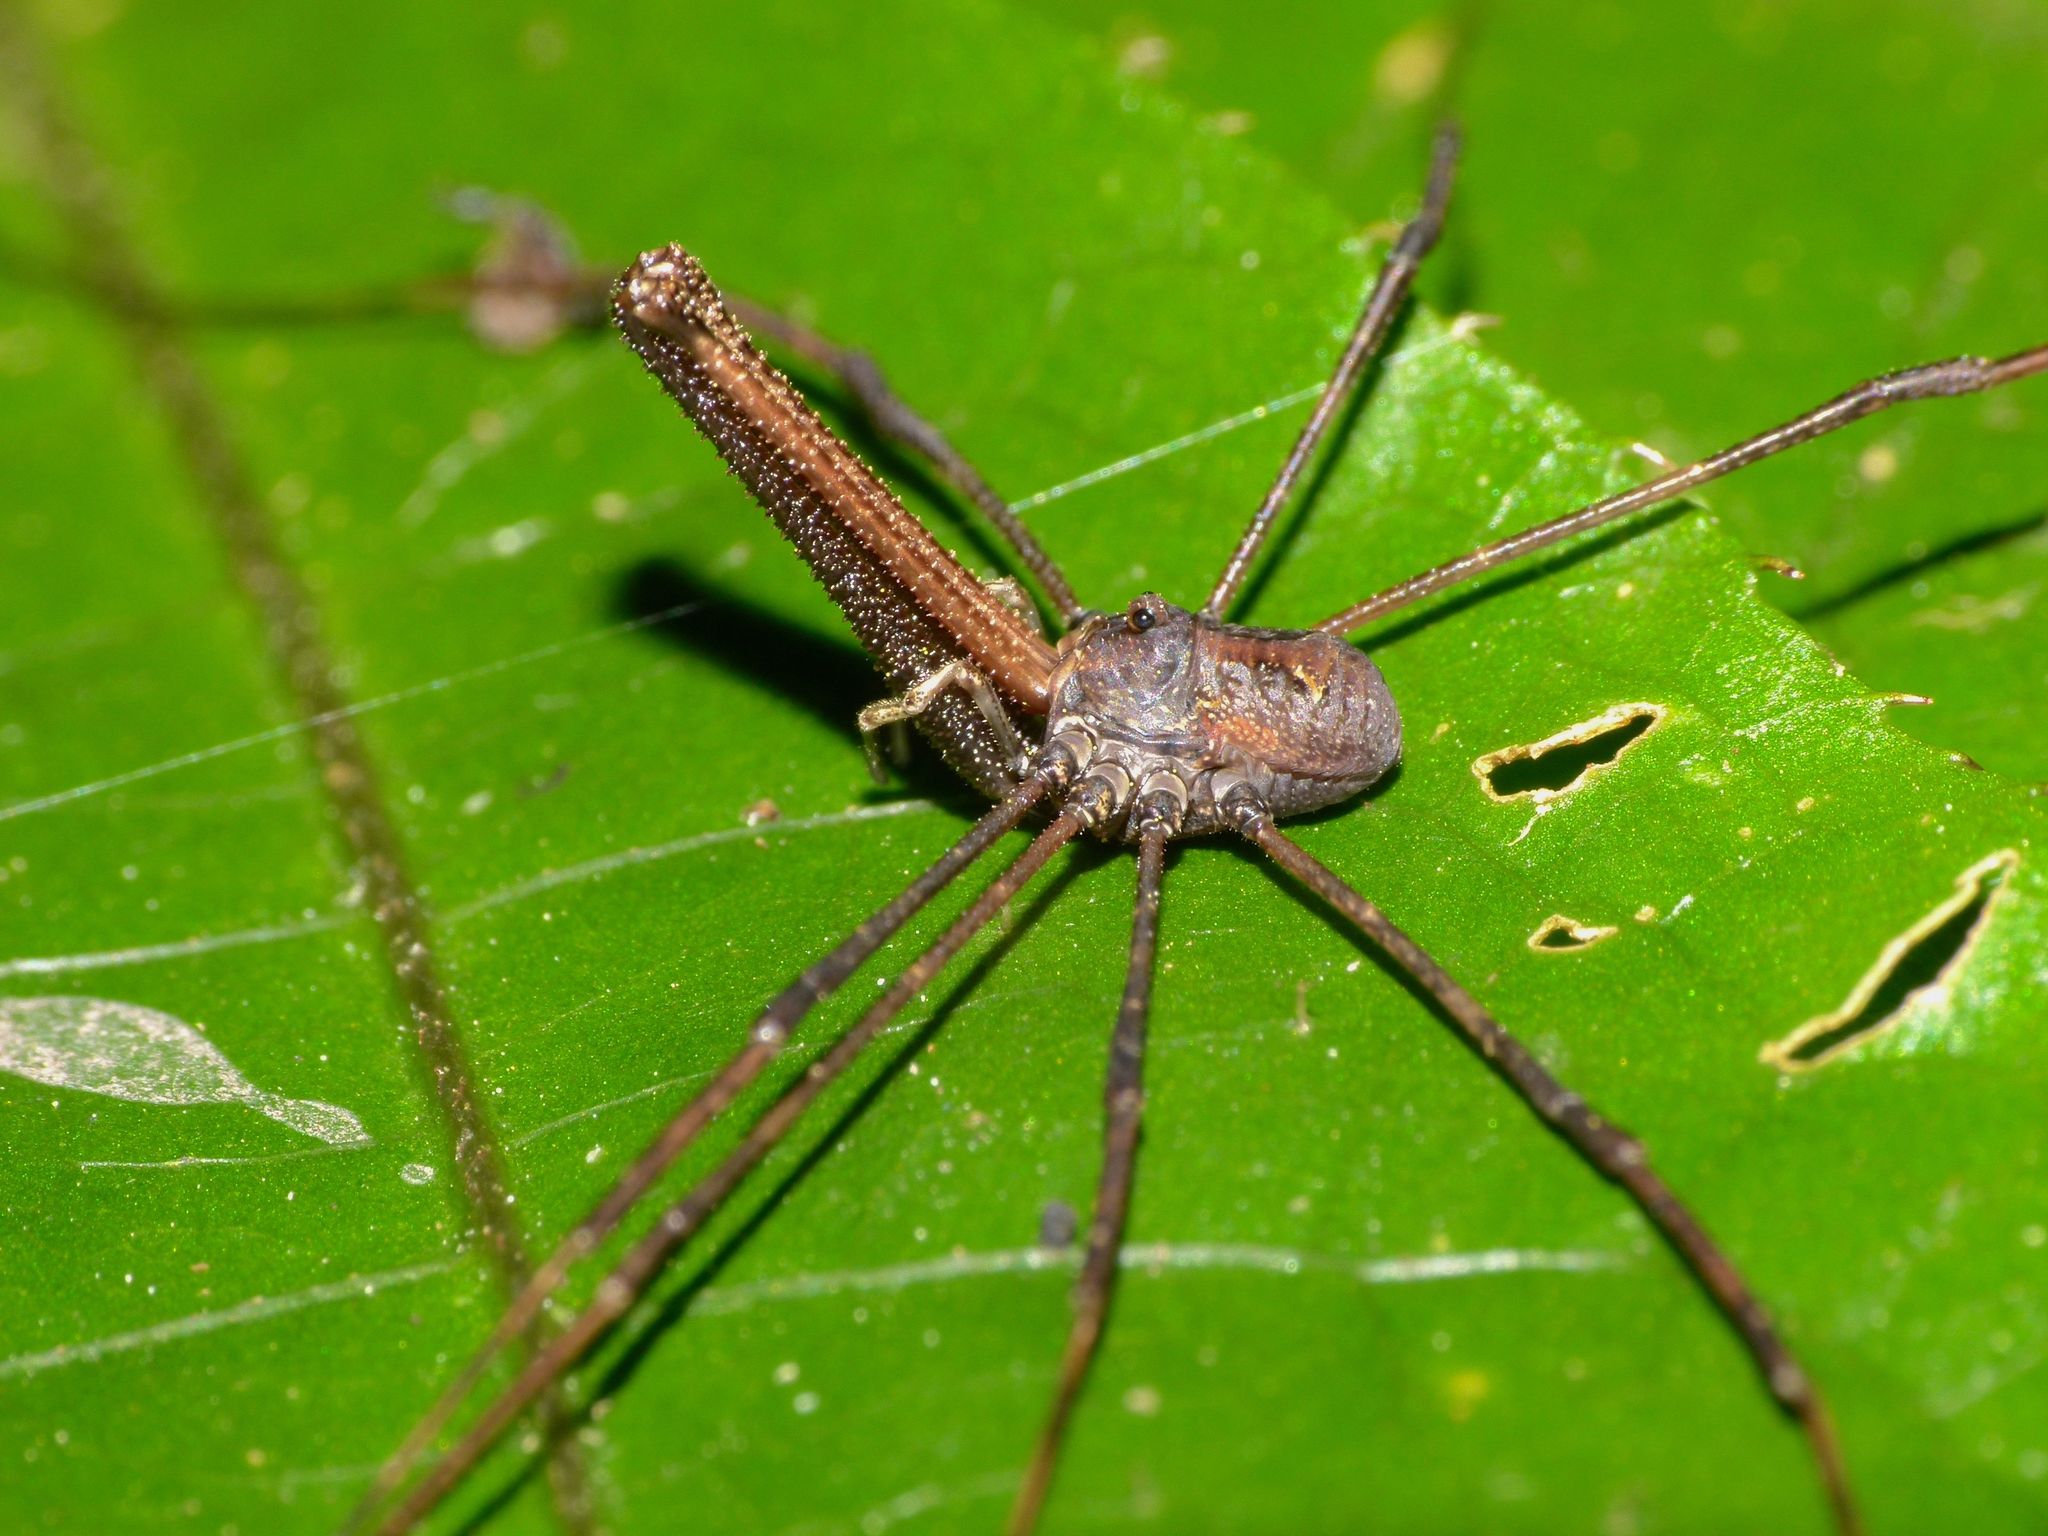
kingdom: Animalia
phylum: Arthropoda
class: Arachnida
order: Opiliones
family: Neopilionidae
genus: Pantopsalis
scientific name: Pantopsalis albipalpis
